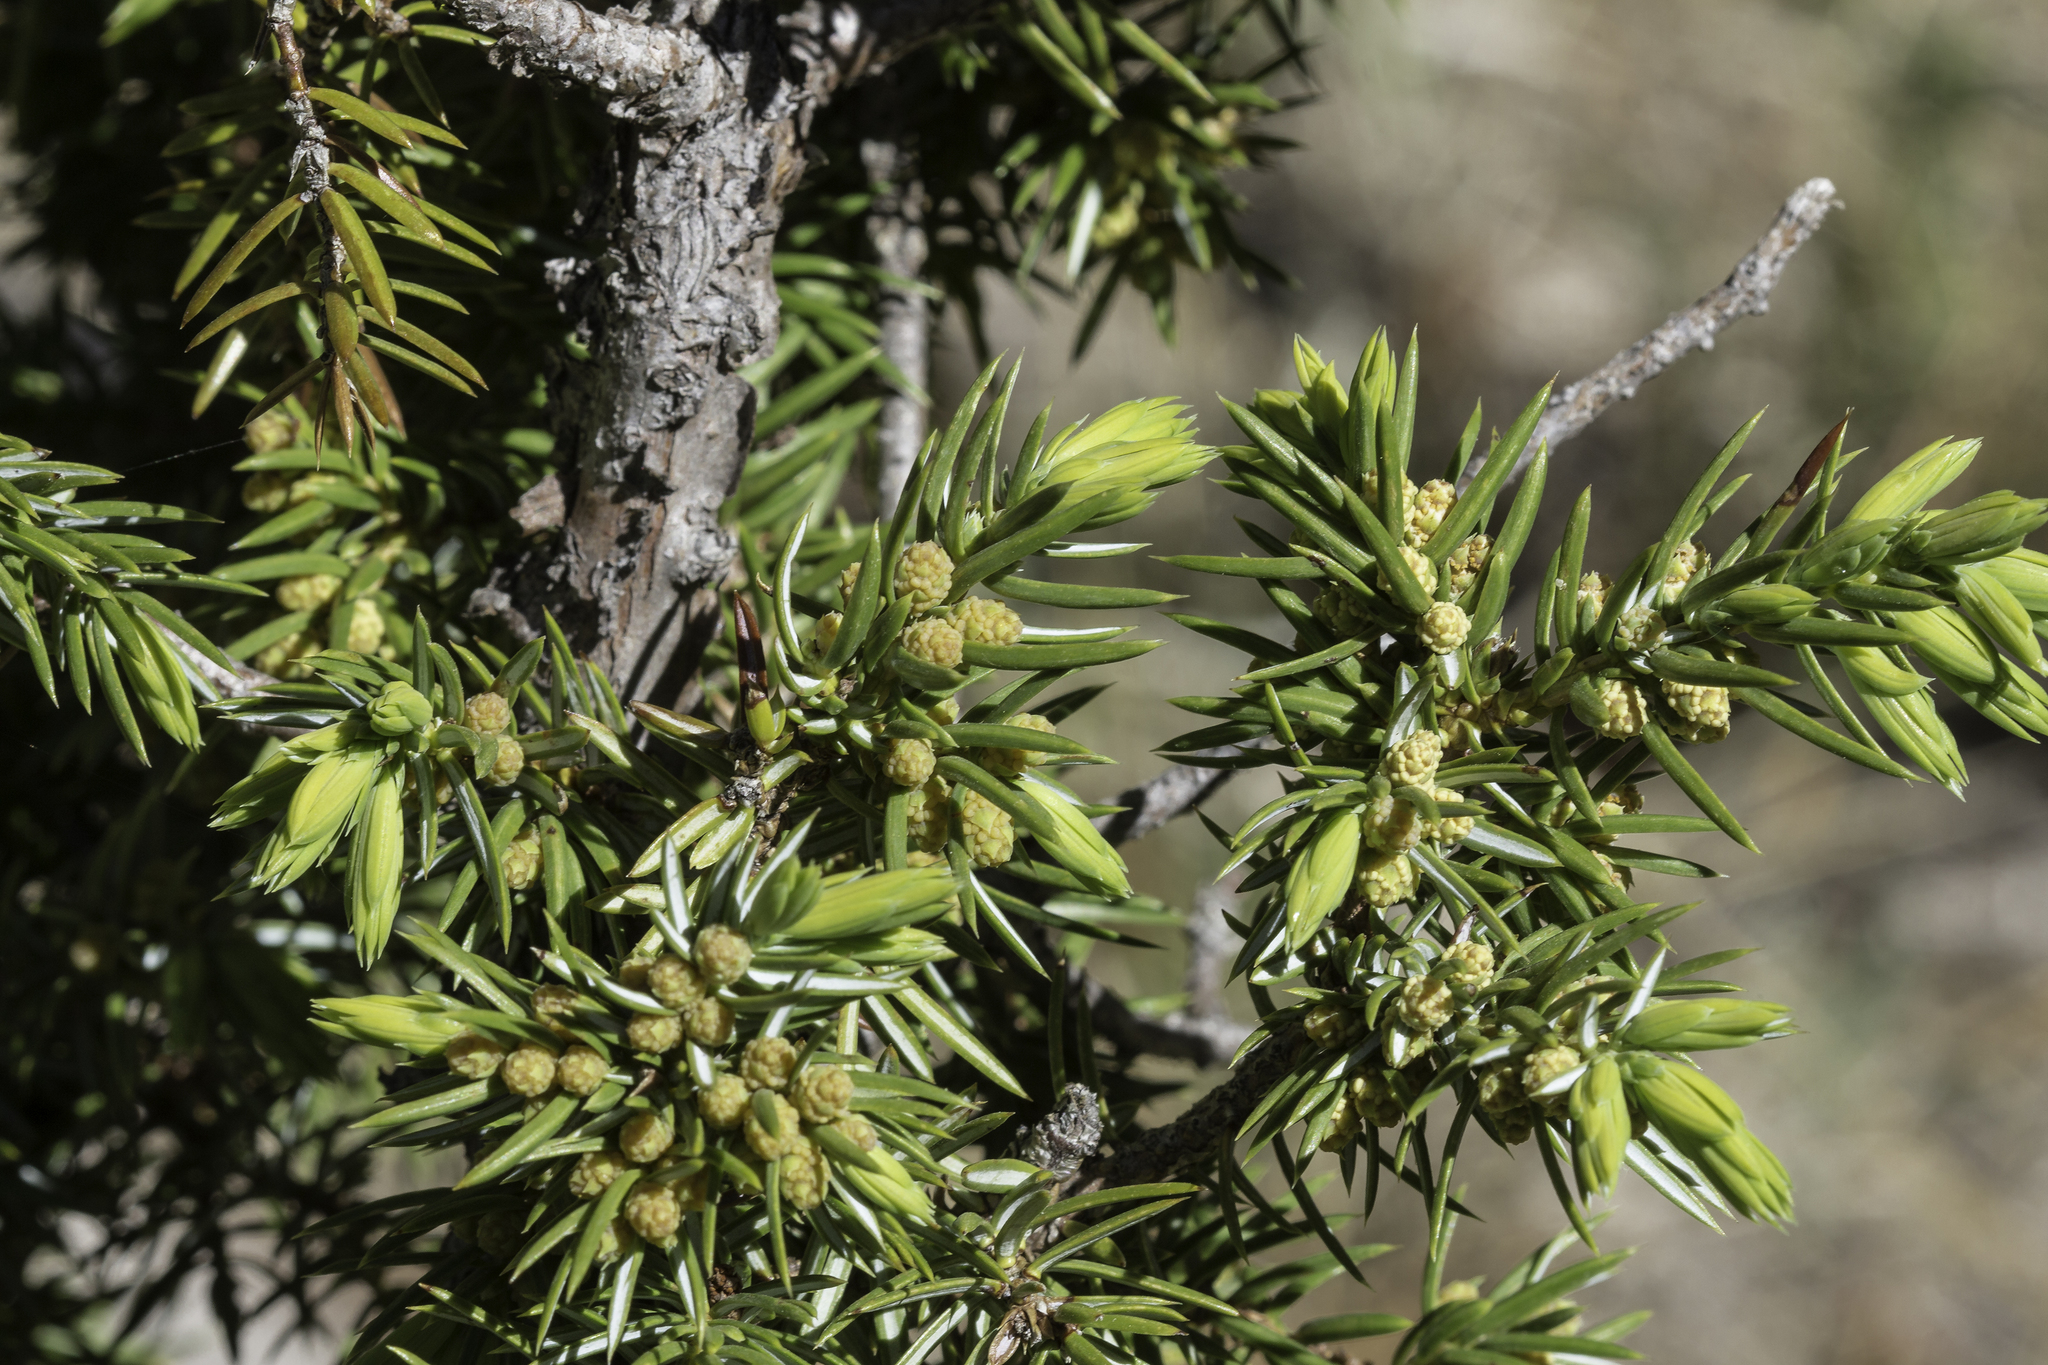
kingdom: Plantae
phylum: Tracheophyta
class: Pinopsida
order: Pinales
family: Cupressaceae
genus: Juniperus
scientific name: Juniperus communis
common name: Common juniper
